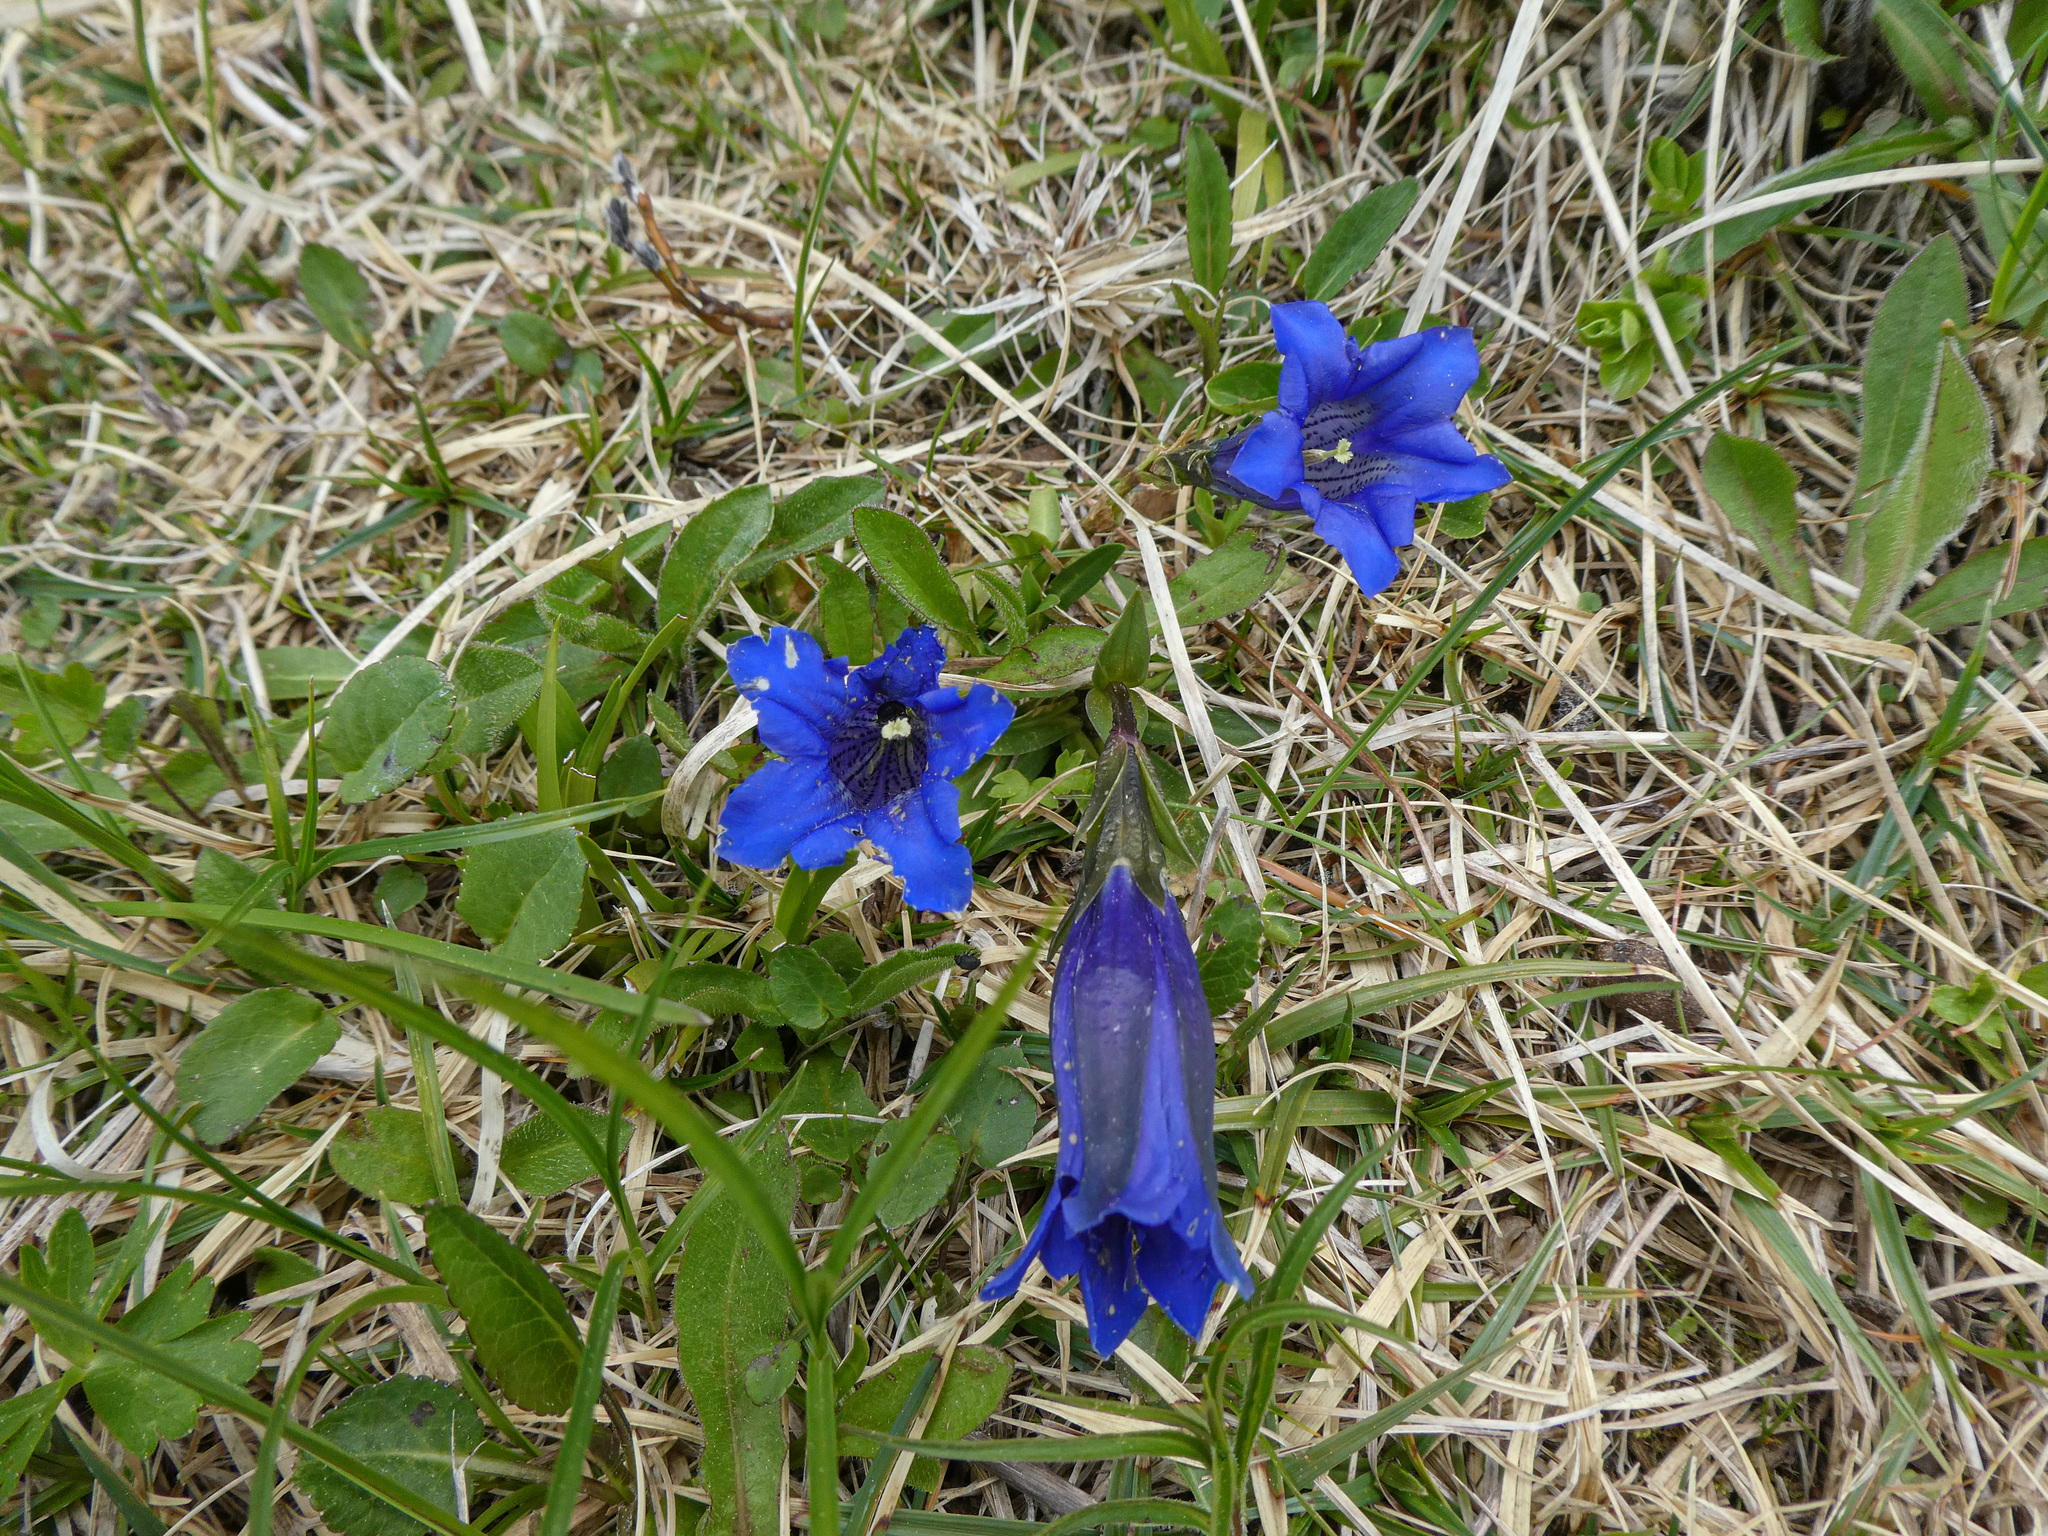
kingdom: Plantae
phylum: Tracheophyta
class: Magnoliopsida
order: Gentianales
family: Gentianaceae
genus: Gentiana
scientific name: Gentiana clusii
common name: Trumpet gentian
